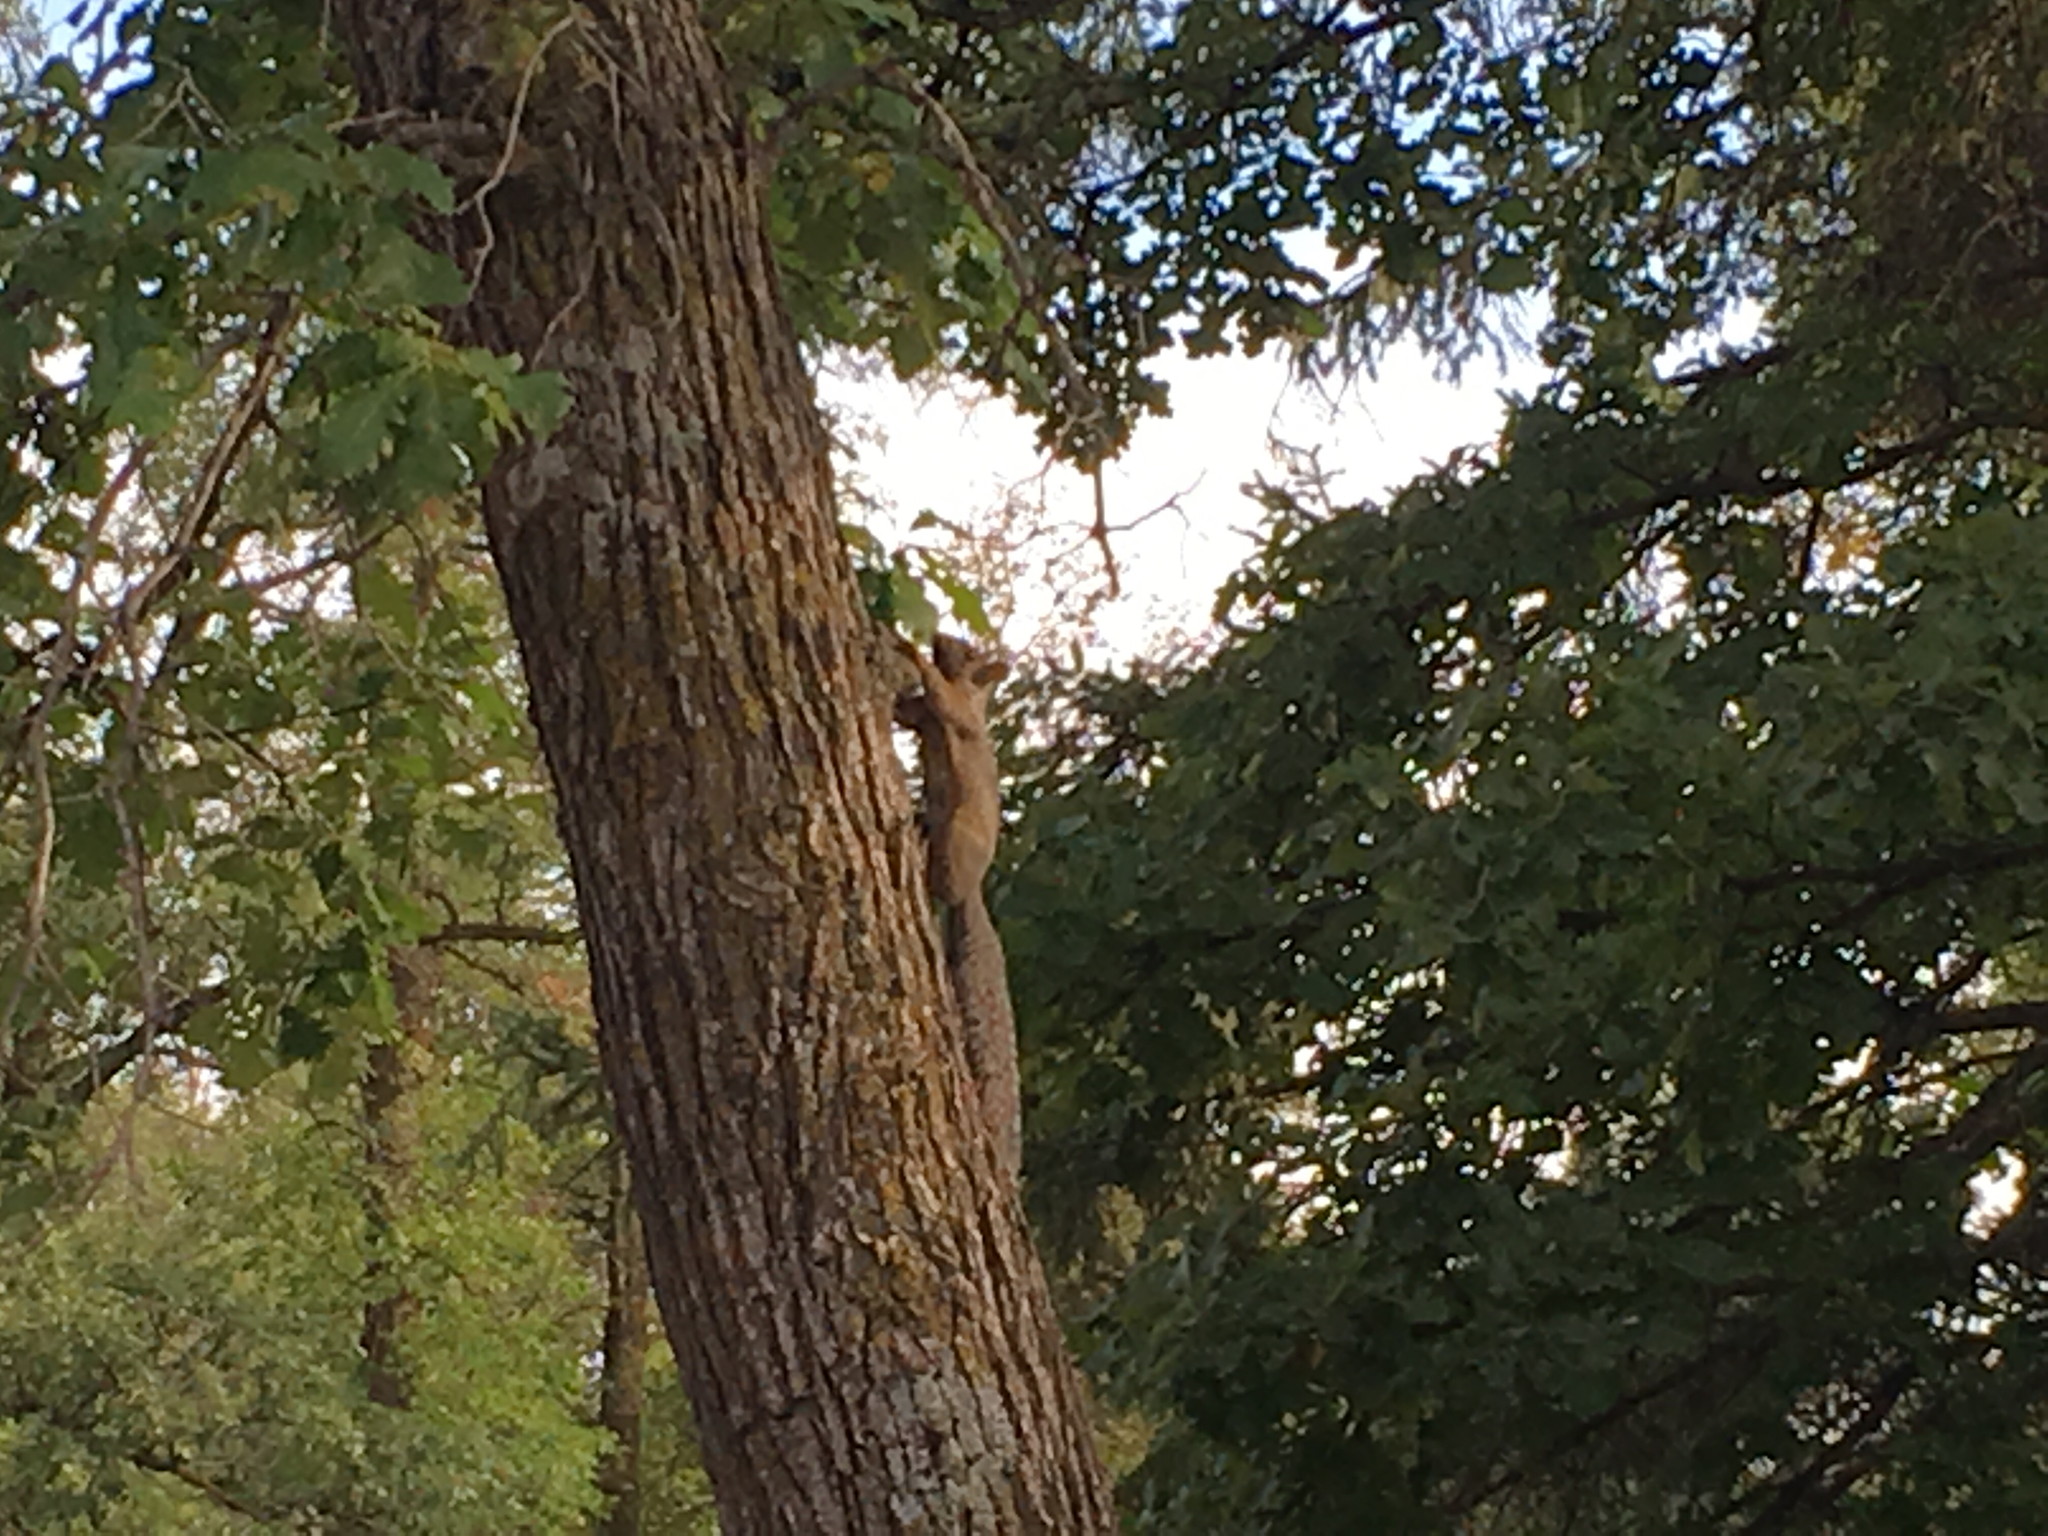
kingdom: Animalia
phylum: Chordata
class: Mammalia
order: Rodentia
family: Sciuridae
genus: Sciurus
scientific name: Sciurus carolinensis
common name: Eastern gray squirrel
